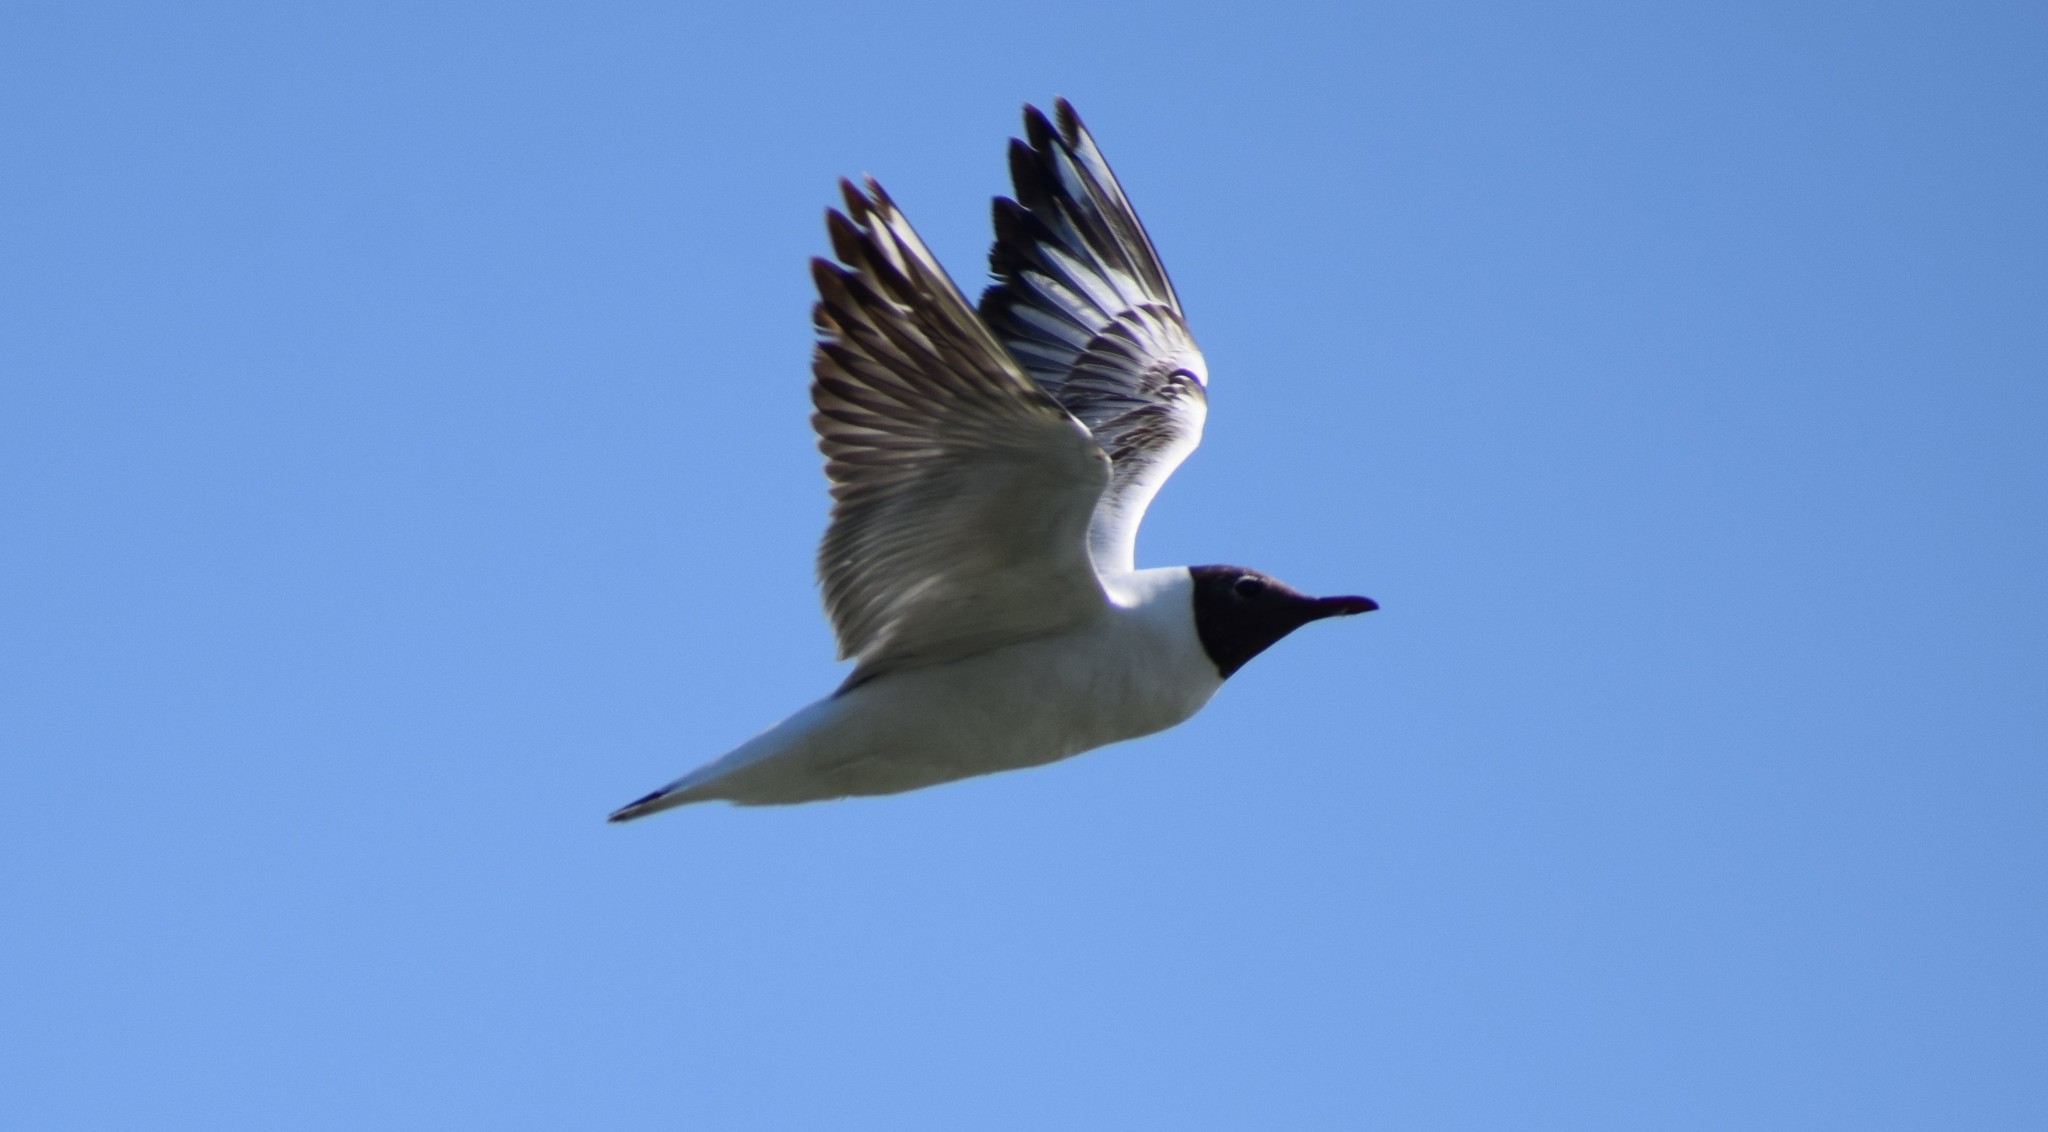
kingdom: Animalia
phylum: Chordata
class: Aves
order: Charadriiformes
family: Laridae
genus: Chroicocephalus
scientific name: Chroicocephalus ridibundus
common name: Black-headed gull
